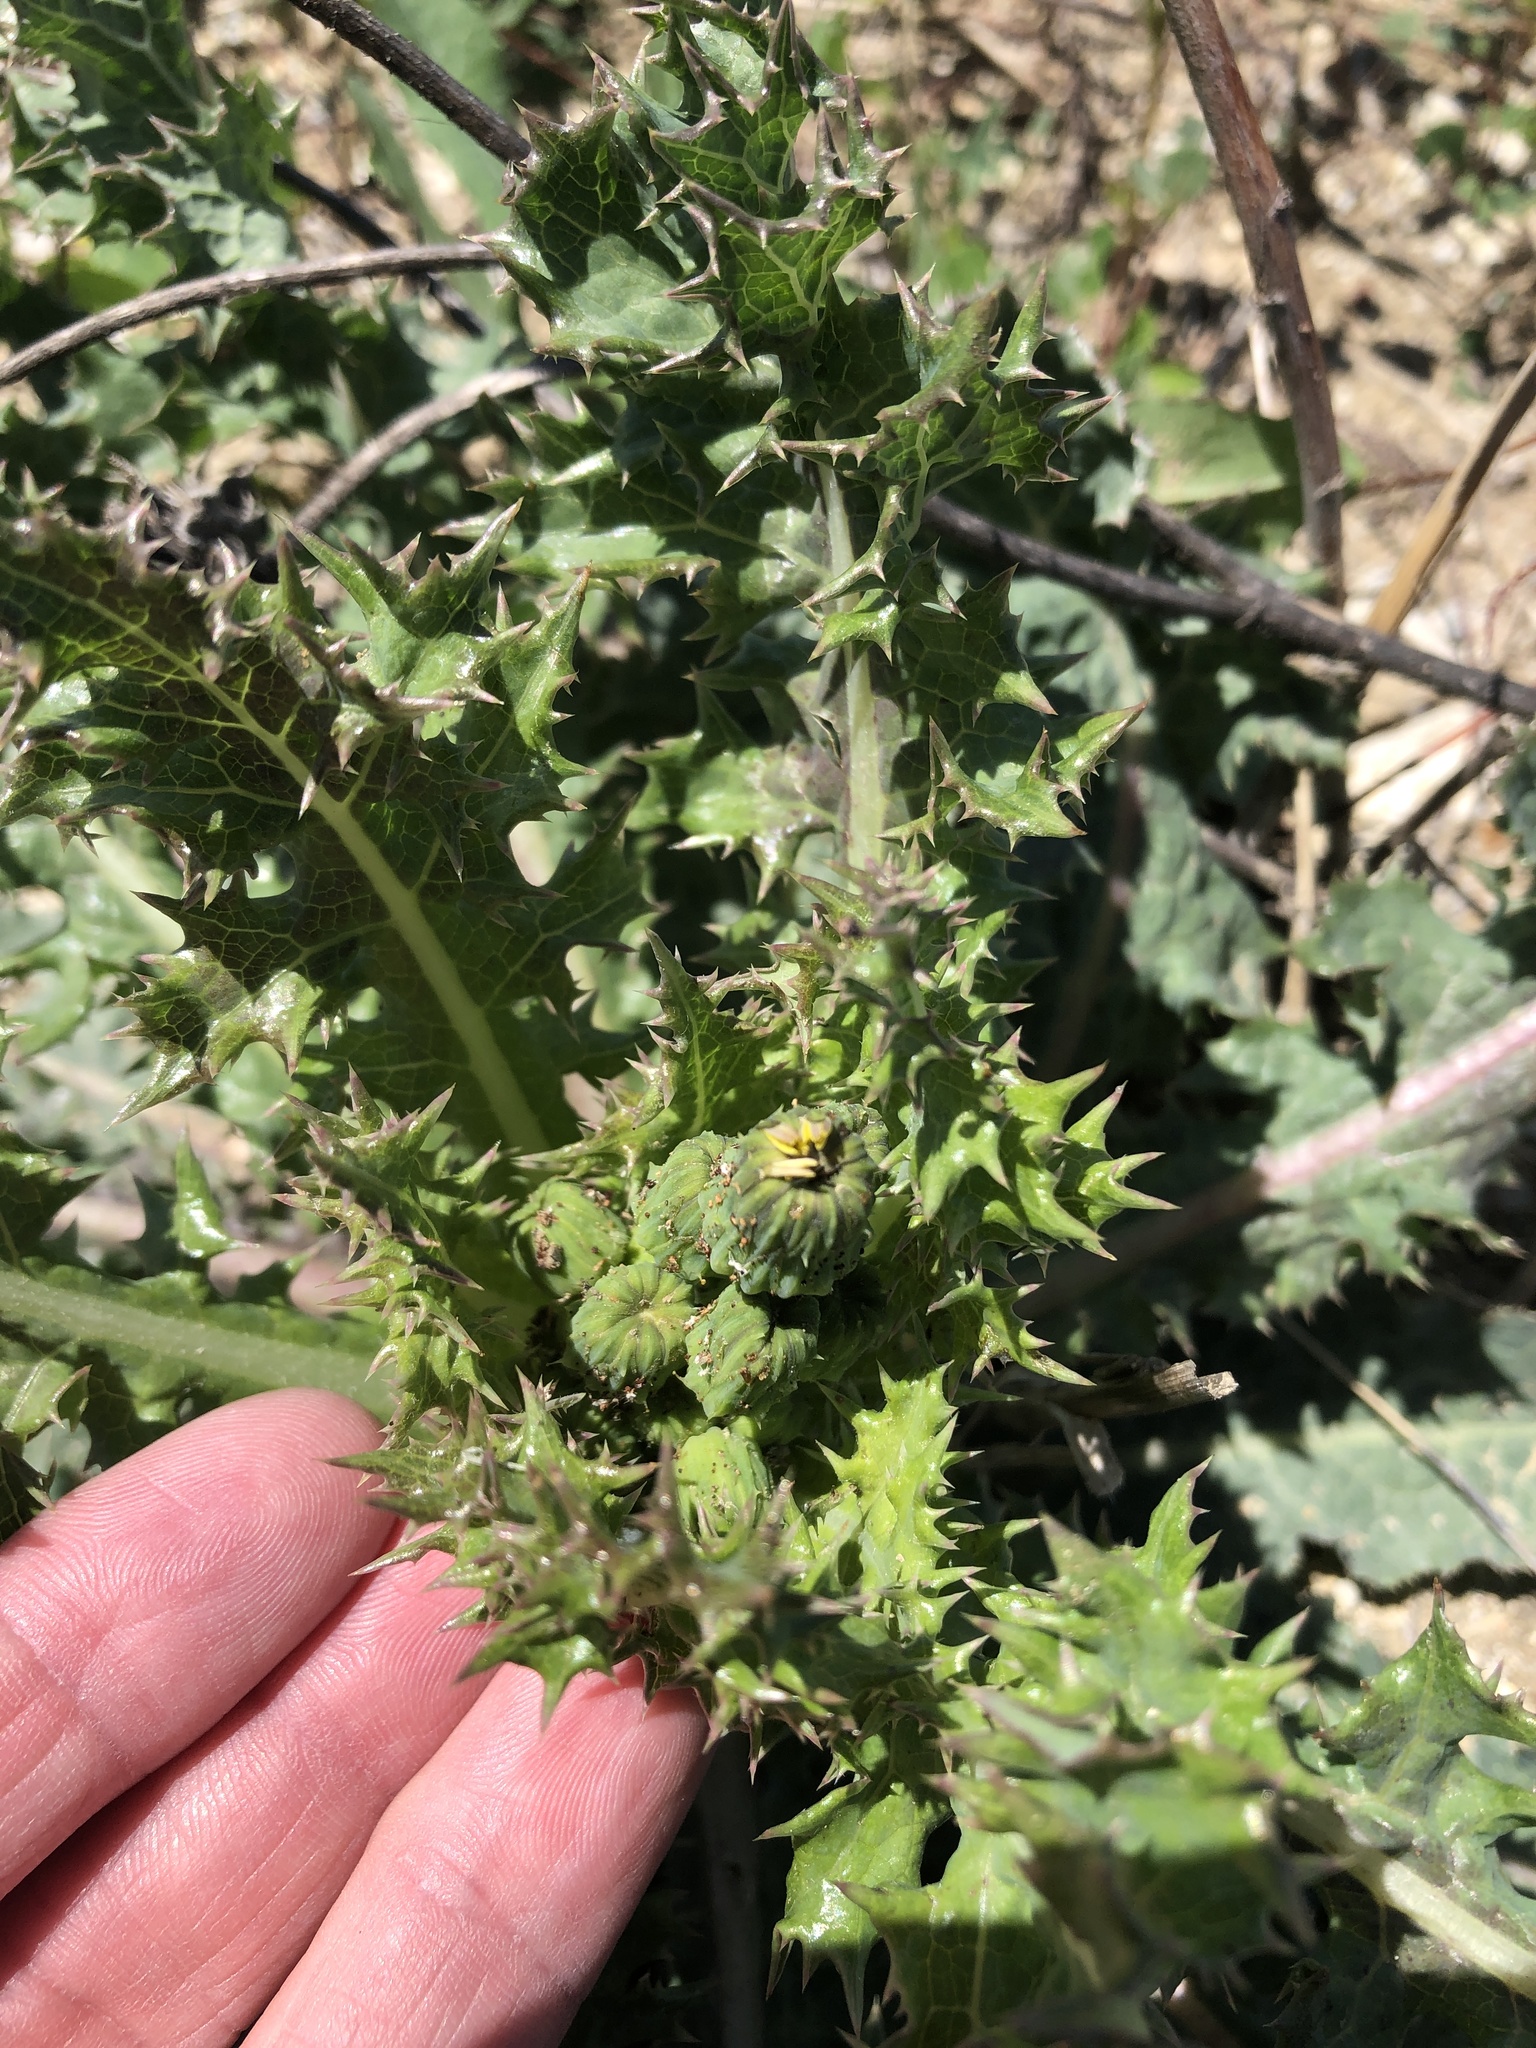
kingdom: Plantae
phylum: Tracheophyta
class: Magnoliopsida
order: Asterales
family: Asteraceae
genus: Sonchus
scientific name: Sonchus asper
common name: Prickly sow-thistle
